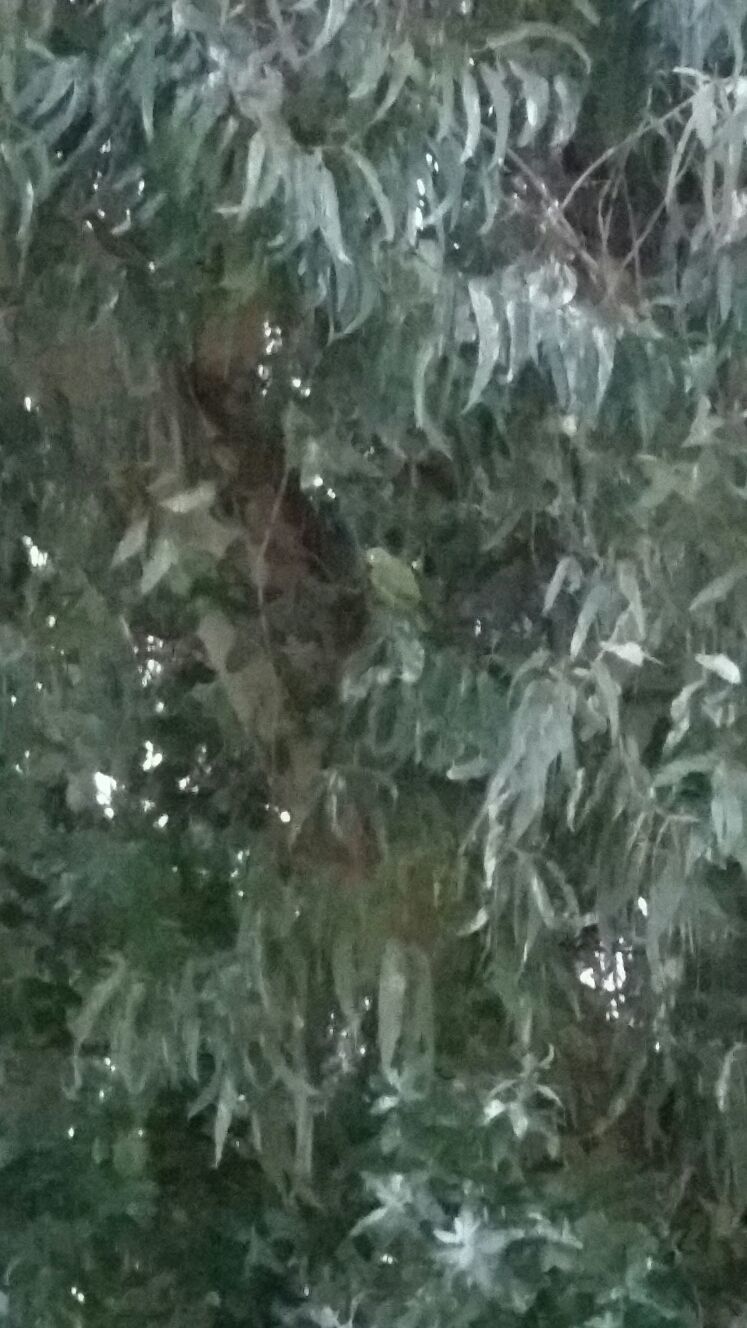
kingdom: Animalia
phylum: Chordata
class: Aves
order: Psittaciformes
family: Psittacidae
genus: Psittacula
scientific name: Psittacula krameri
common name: Rose-ringed parakeet
